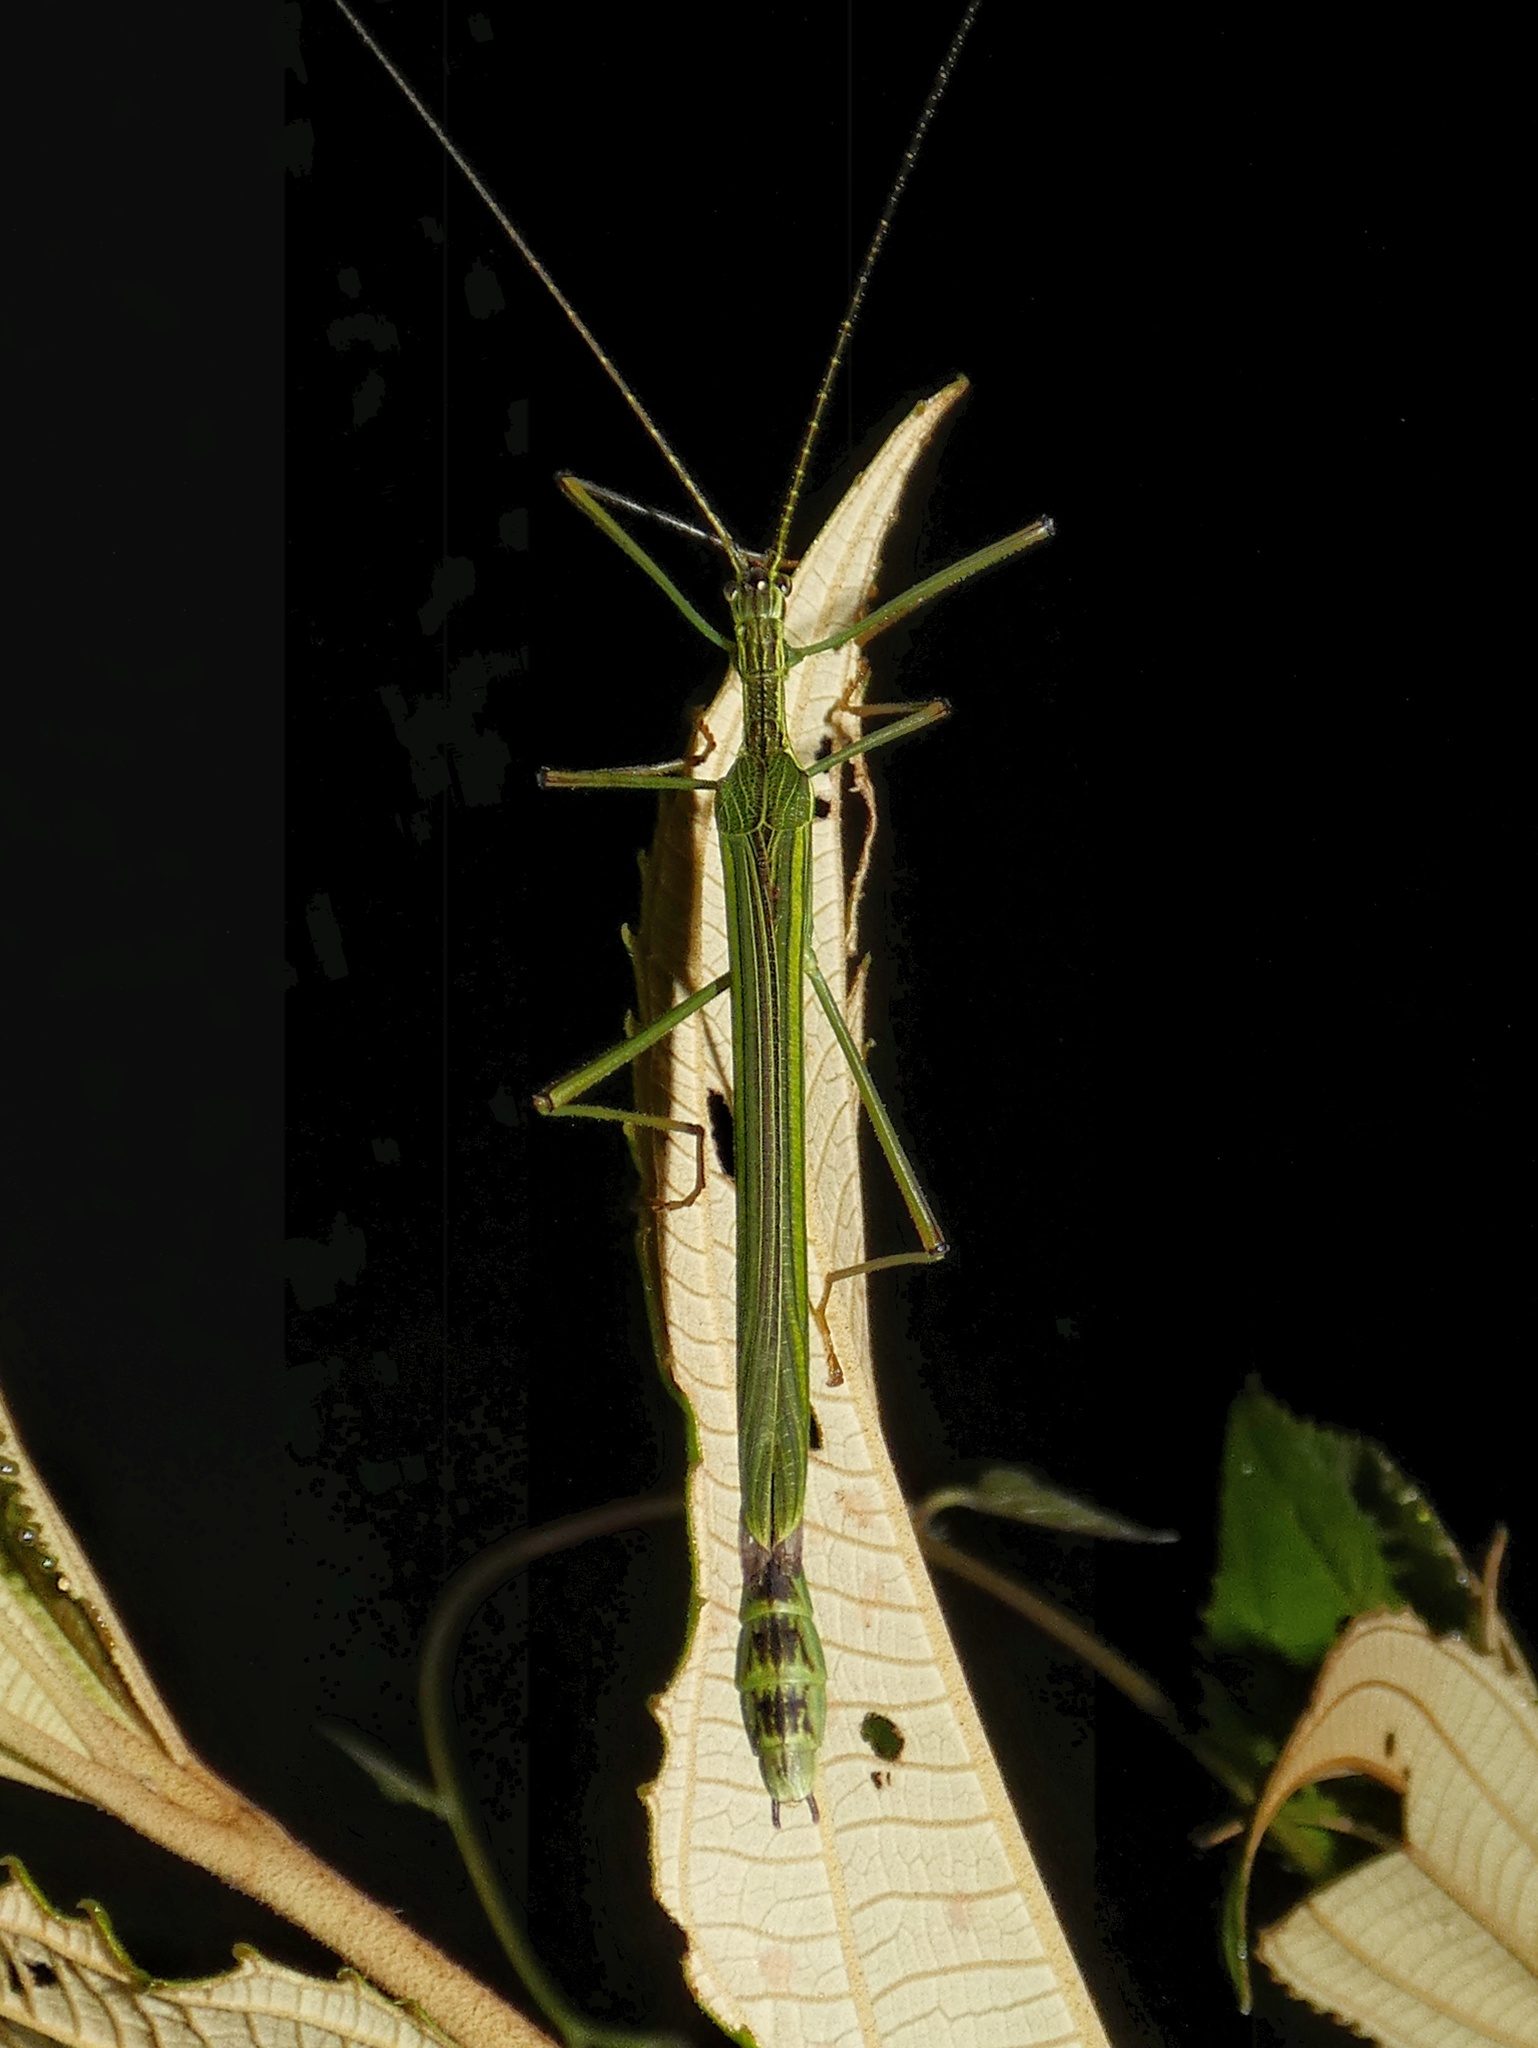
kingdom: Animalia
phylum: Arthropoda
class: Insecta
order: Phasmida
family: Pseudophasmatidae
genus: Brizoides
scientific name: Brizoides nigricornis
